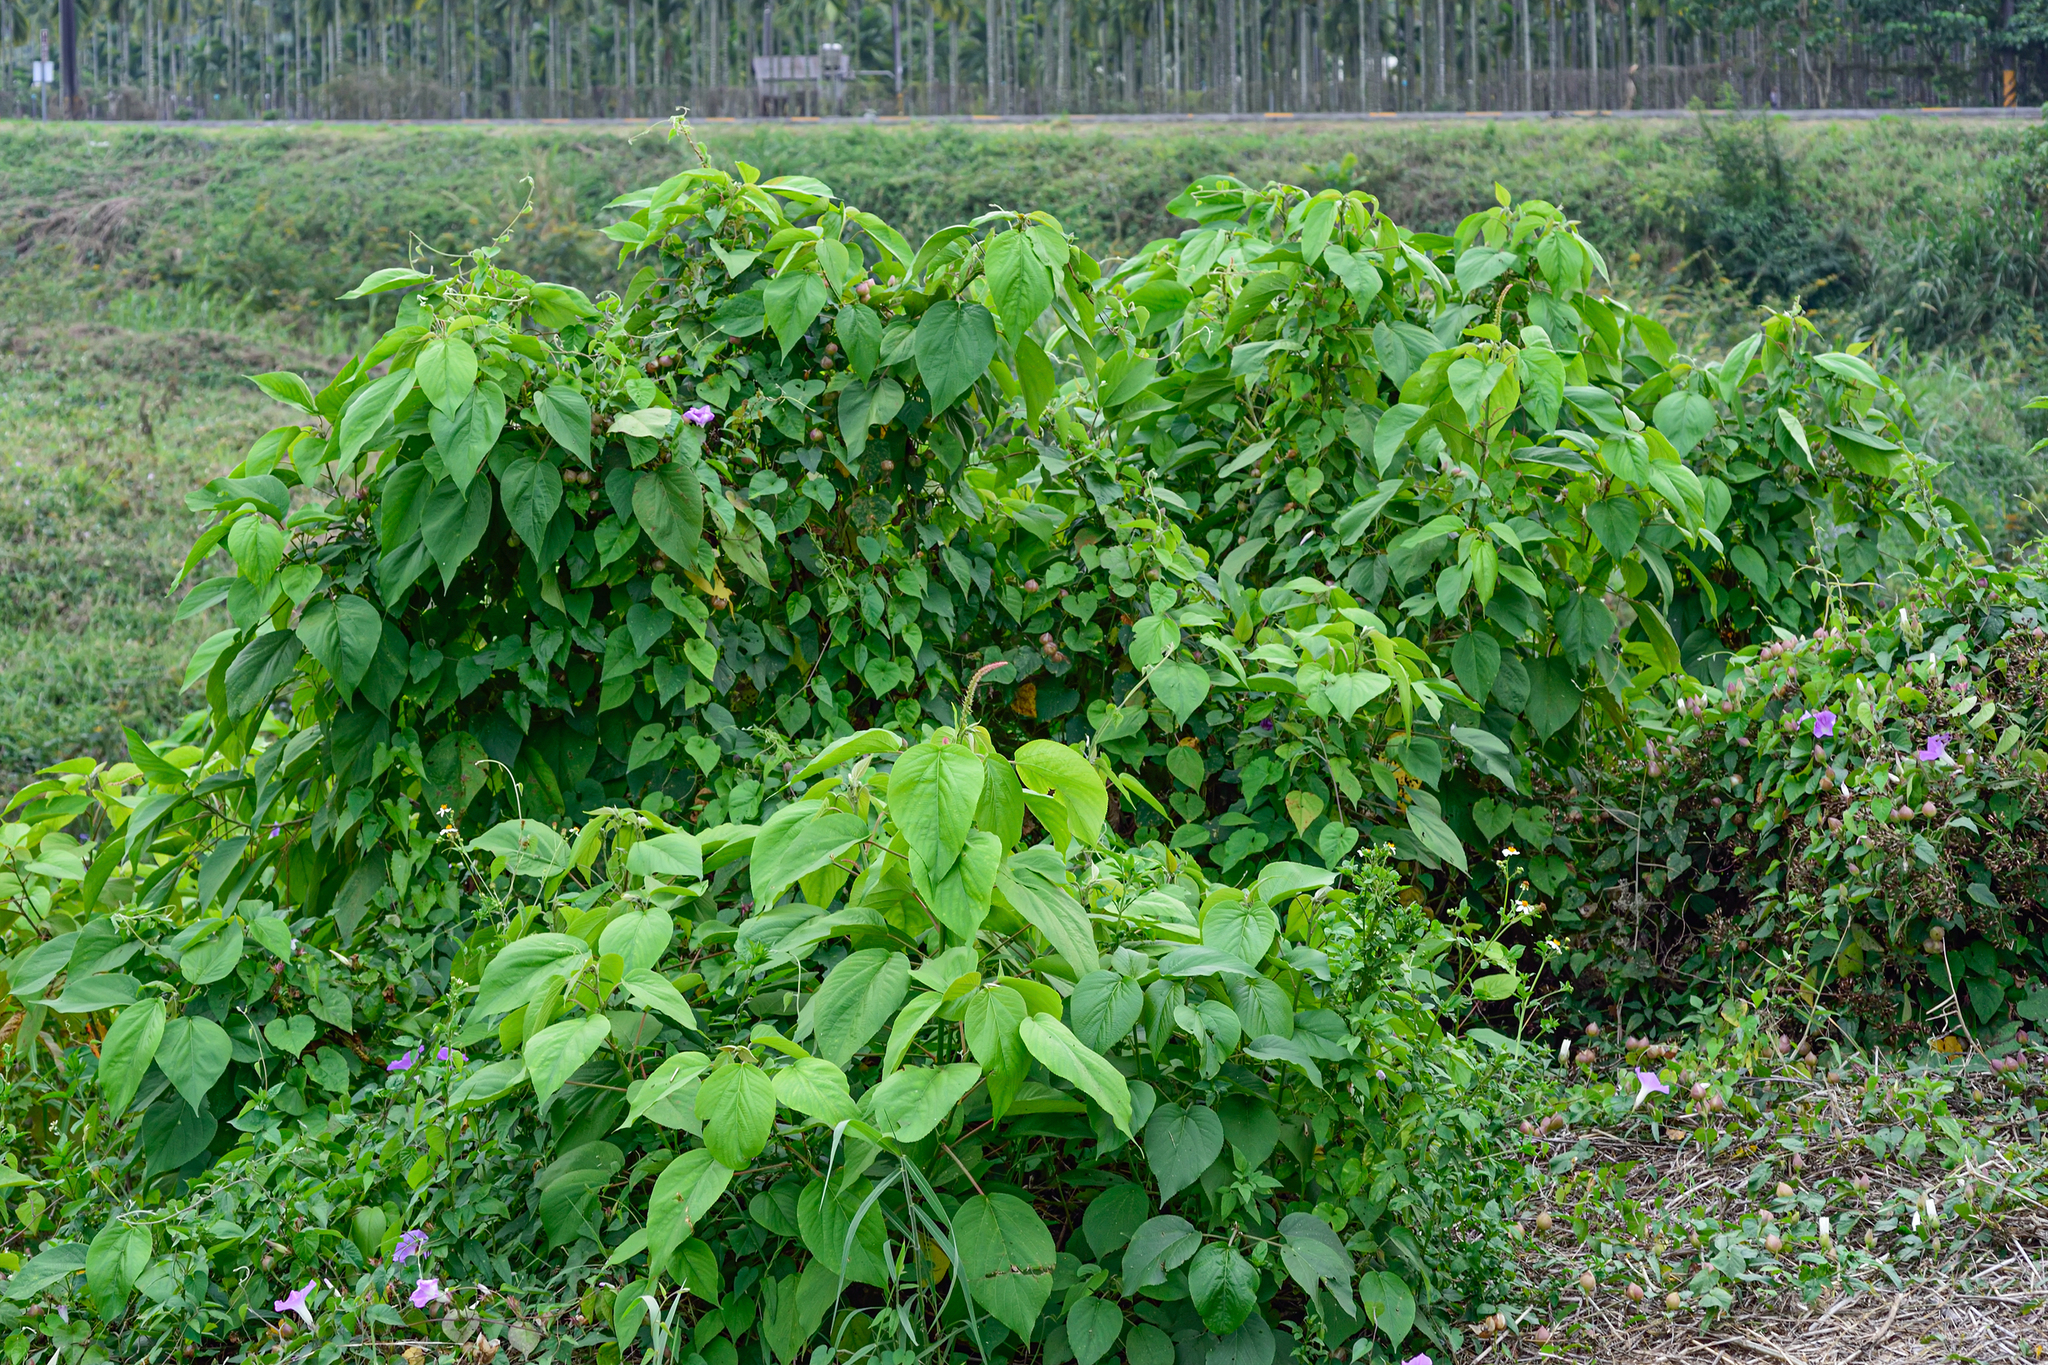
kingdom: Plantae
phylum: Tracheophyta
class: Magnoliopsida
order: Malpighiales
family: Euphorbiaceae
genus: Acalypha
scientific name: Acalypha angatensis
